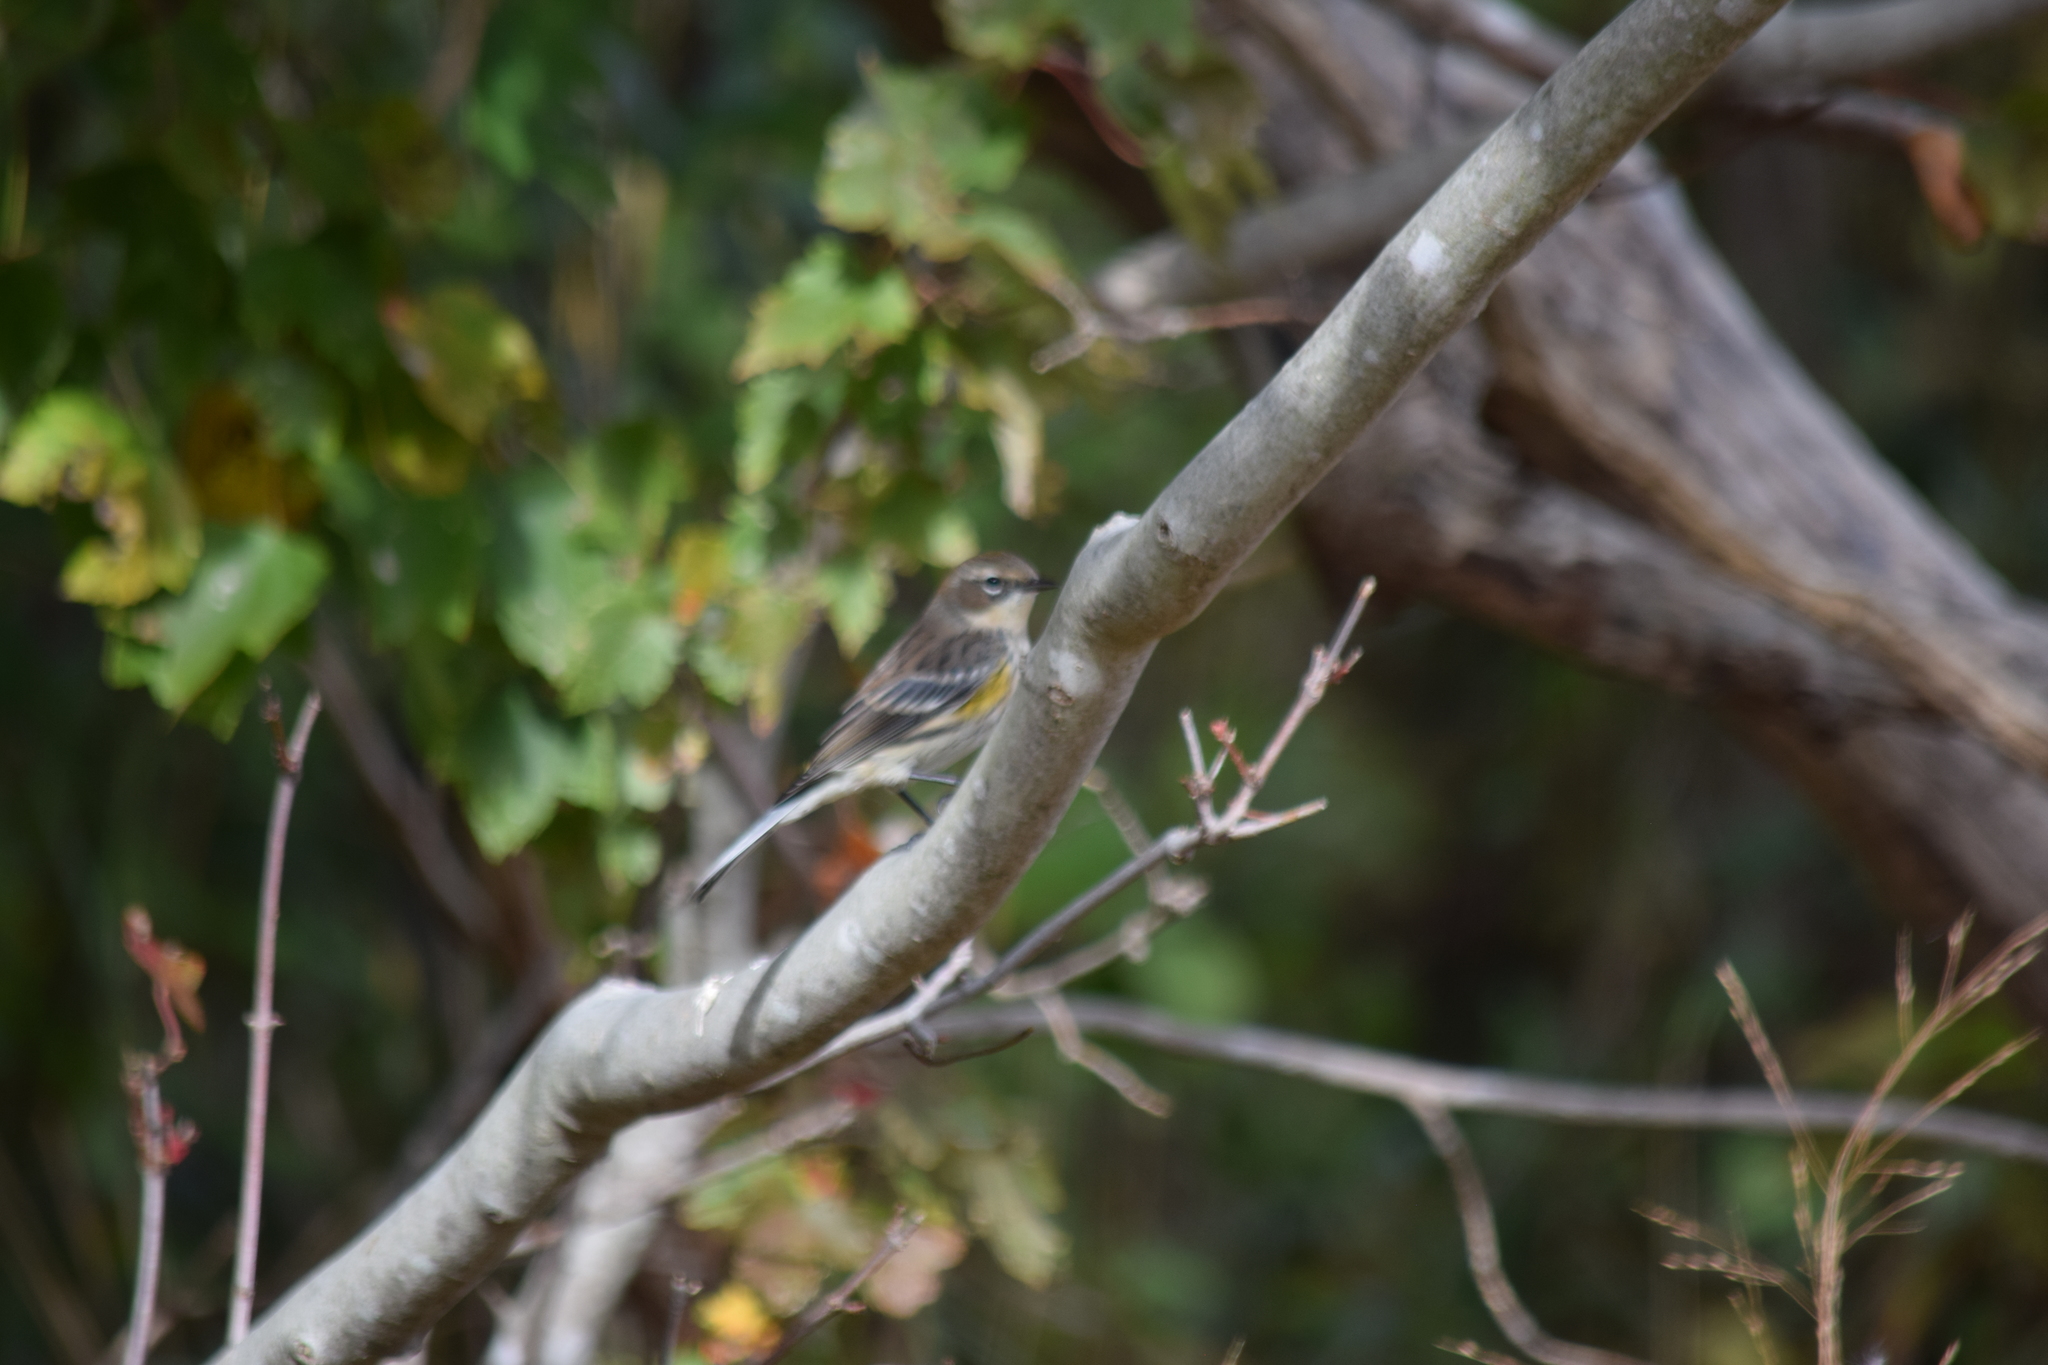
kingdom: Animalia
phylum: Chordata
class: Aves
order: Passeriformes
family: Parulidae
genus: Setophaga
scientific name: Setophaga coronata
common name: Myrtle warbler
